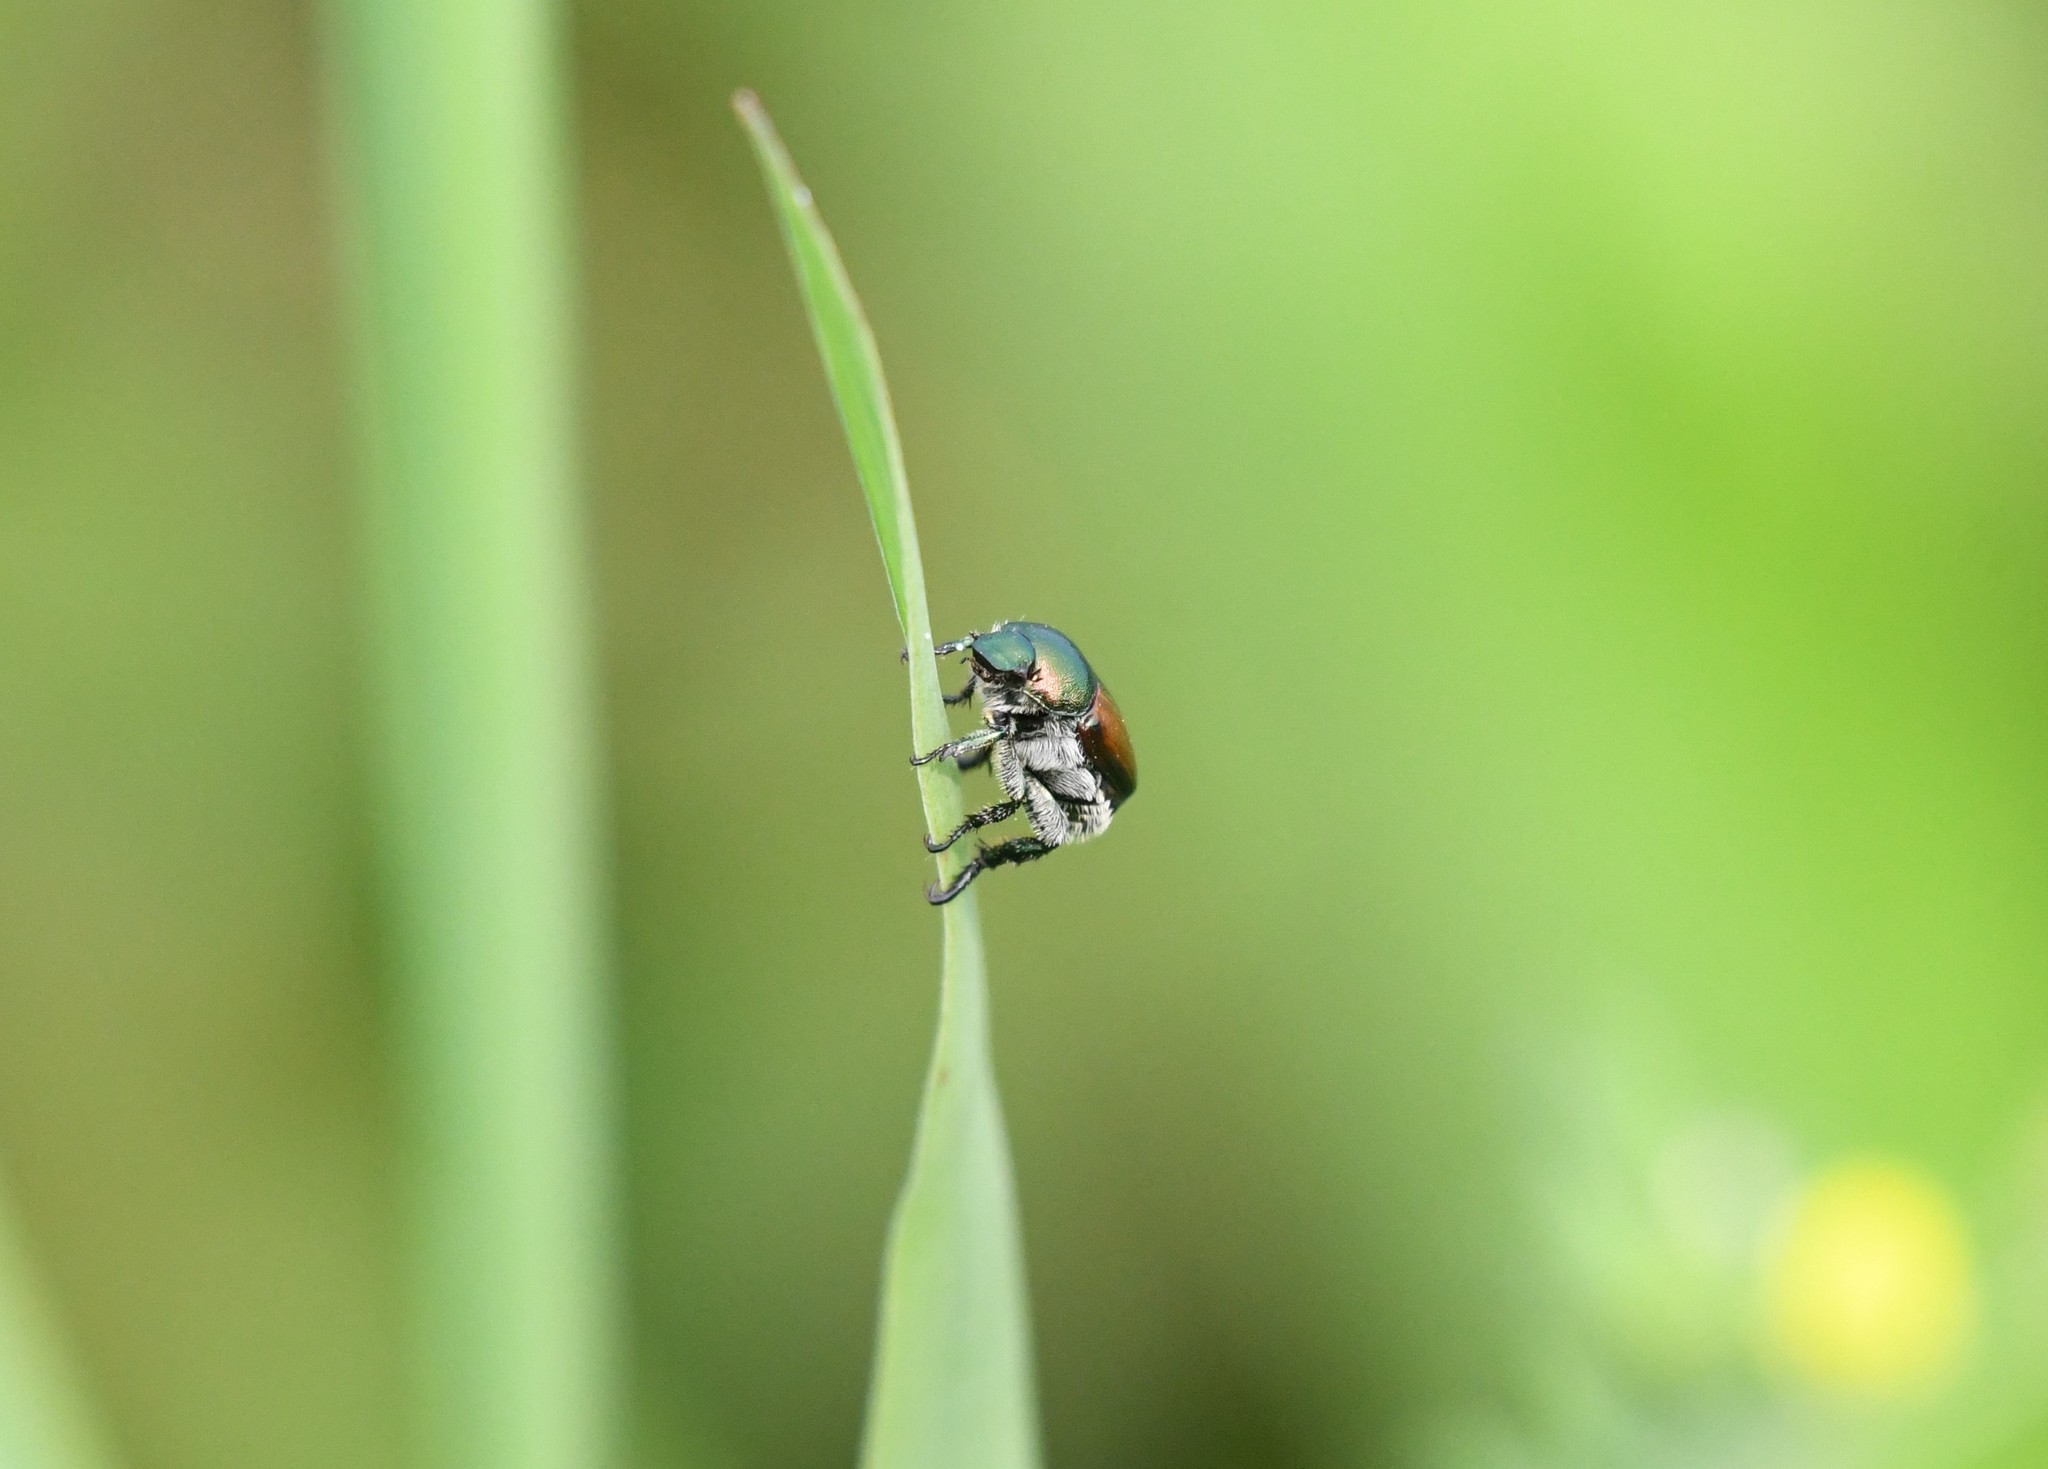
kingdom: Animalia
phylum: Arthropoda
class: Insecta
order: Coleoptera
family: Scarabaeidae
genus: Popillia
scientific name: Popillia japonica
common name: Japanese beetle
